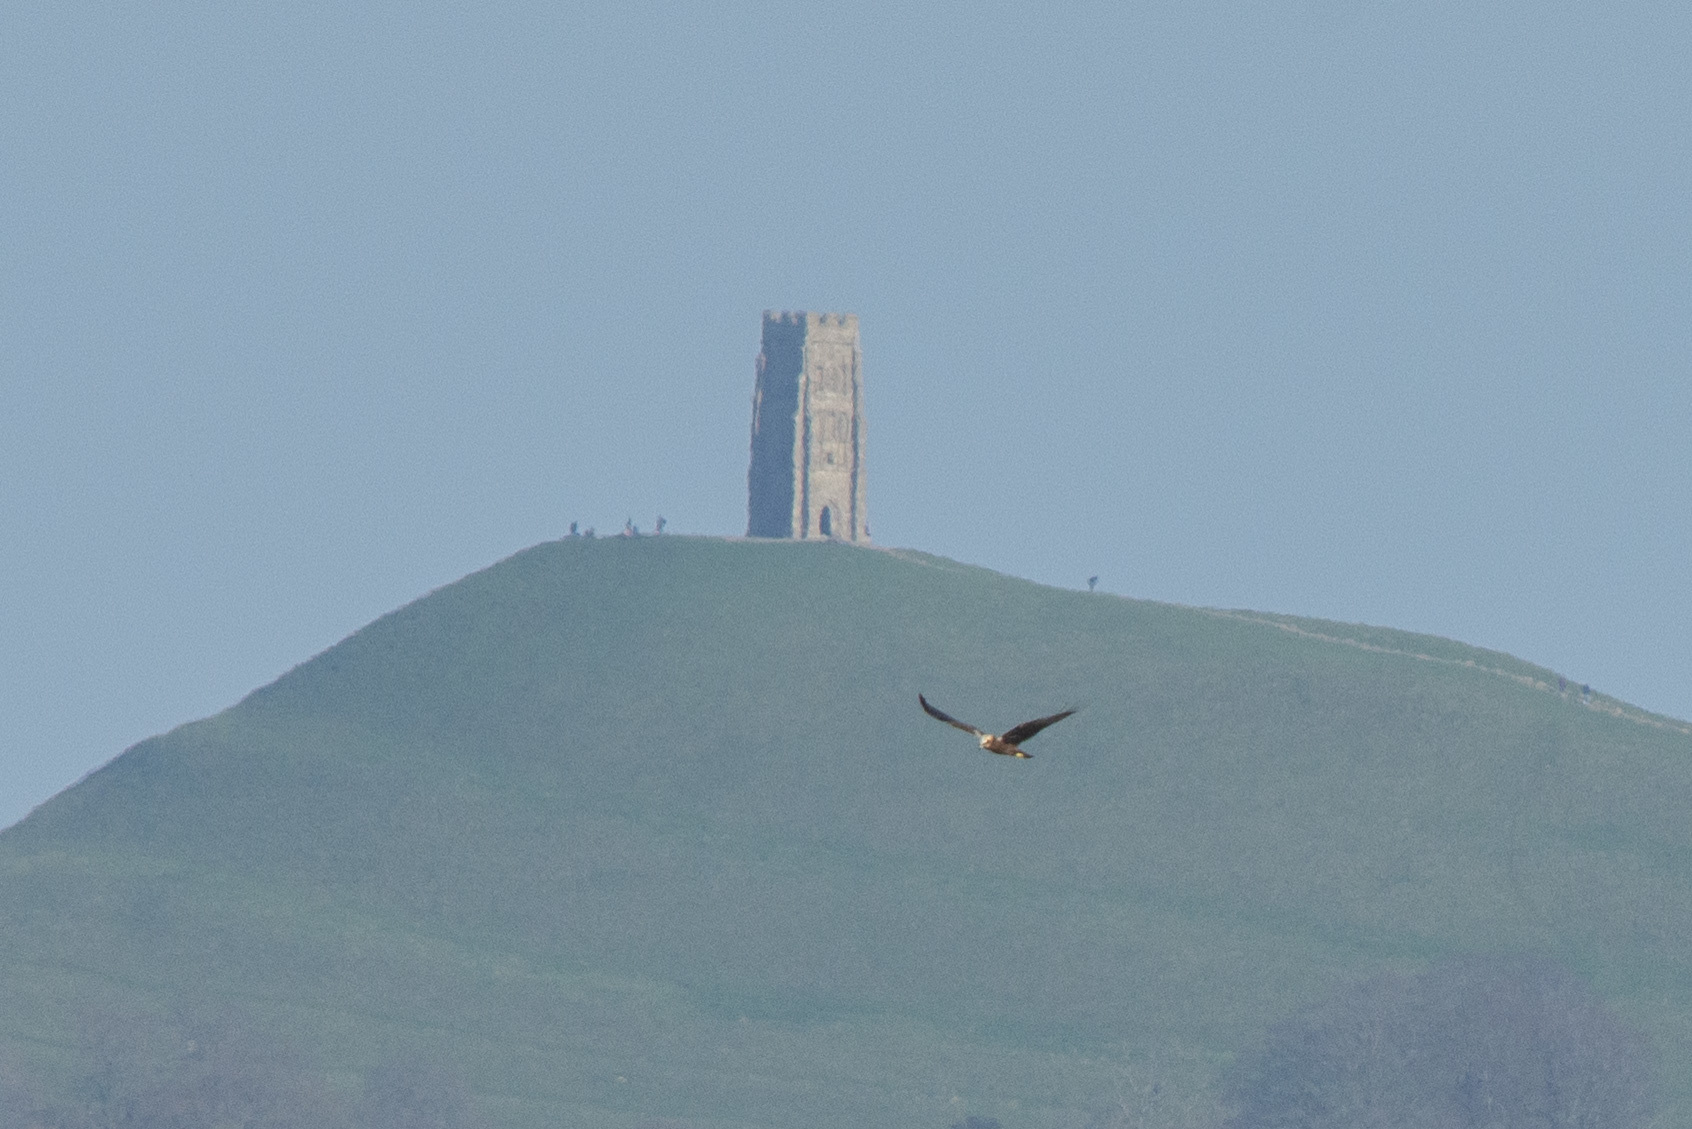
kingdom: Animalia
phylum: Chordata
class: Aves
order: Accipitriformes
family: Accipitridae
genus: Circus
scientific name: Circus aeruginosus
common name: Western marsh harrier
